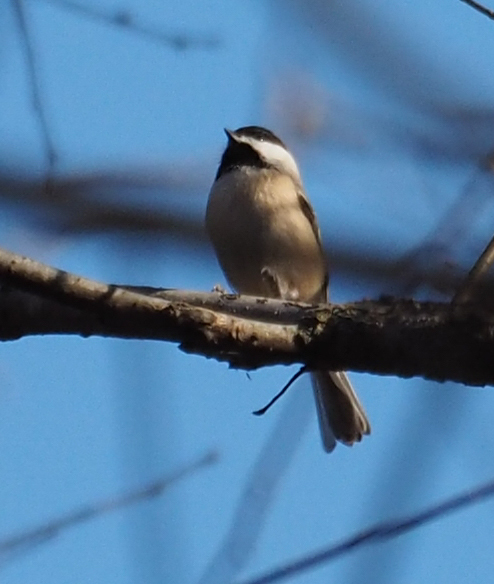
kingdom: Animalia
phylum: Chordata
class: Aves
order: Passeriformes
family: Paridae
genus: Poecile
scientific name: Poecile carolinensis
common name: Carolina chickadee
